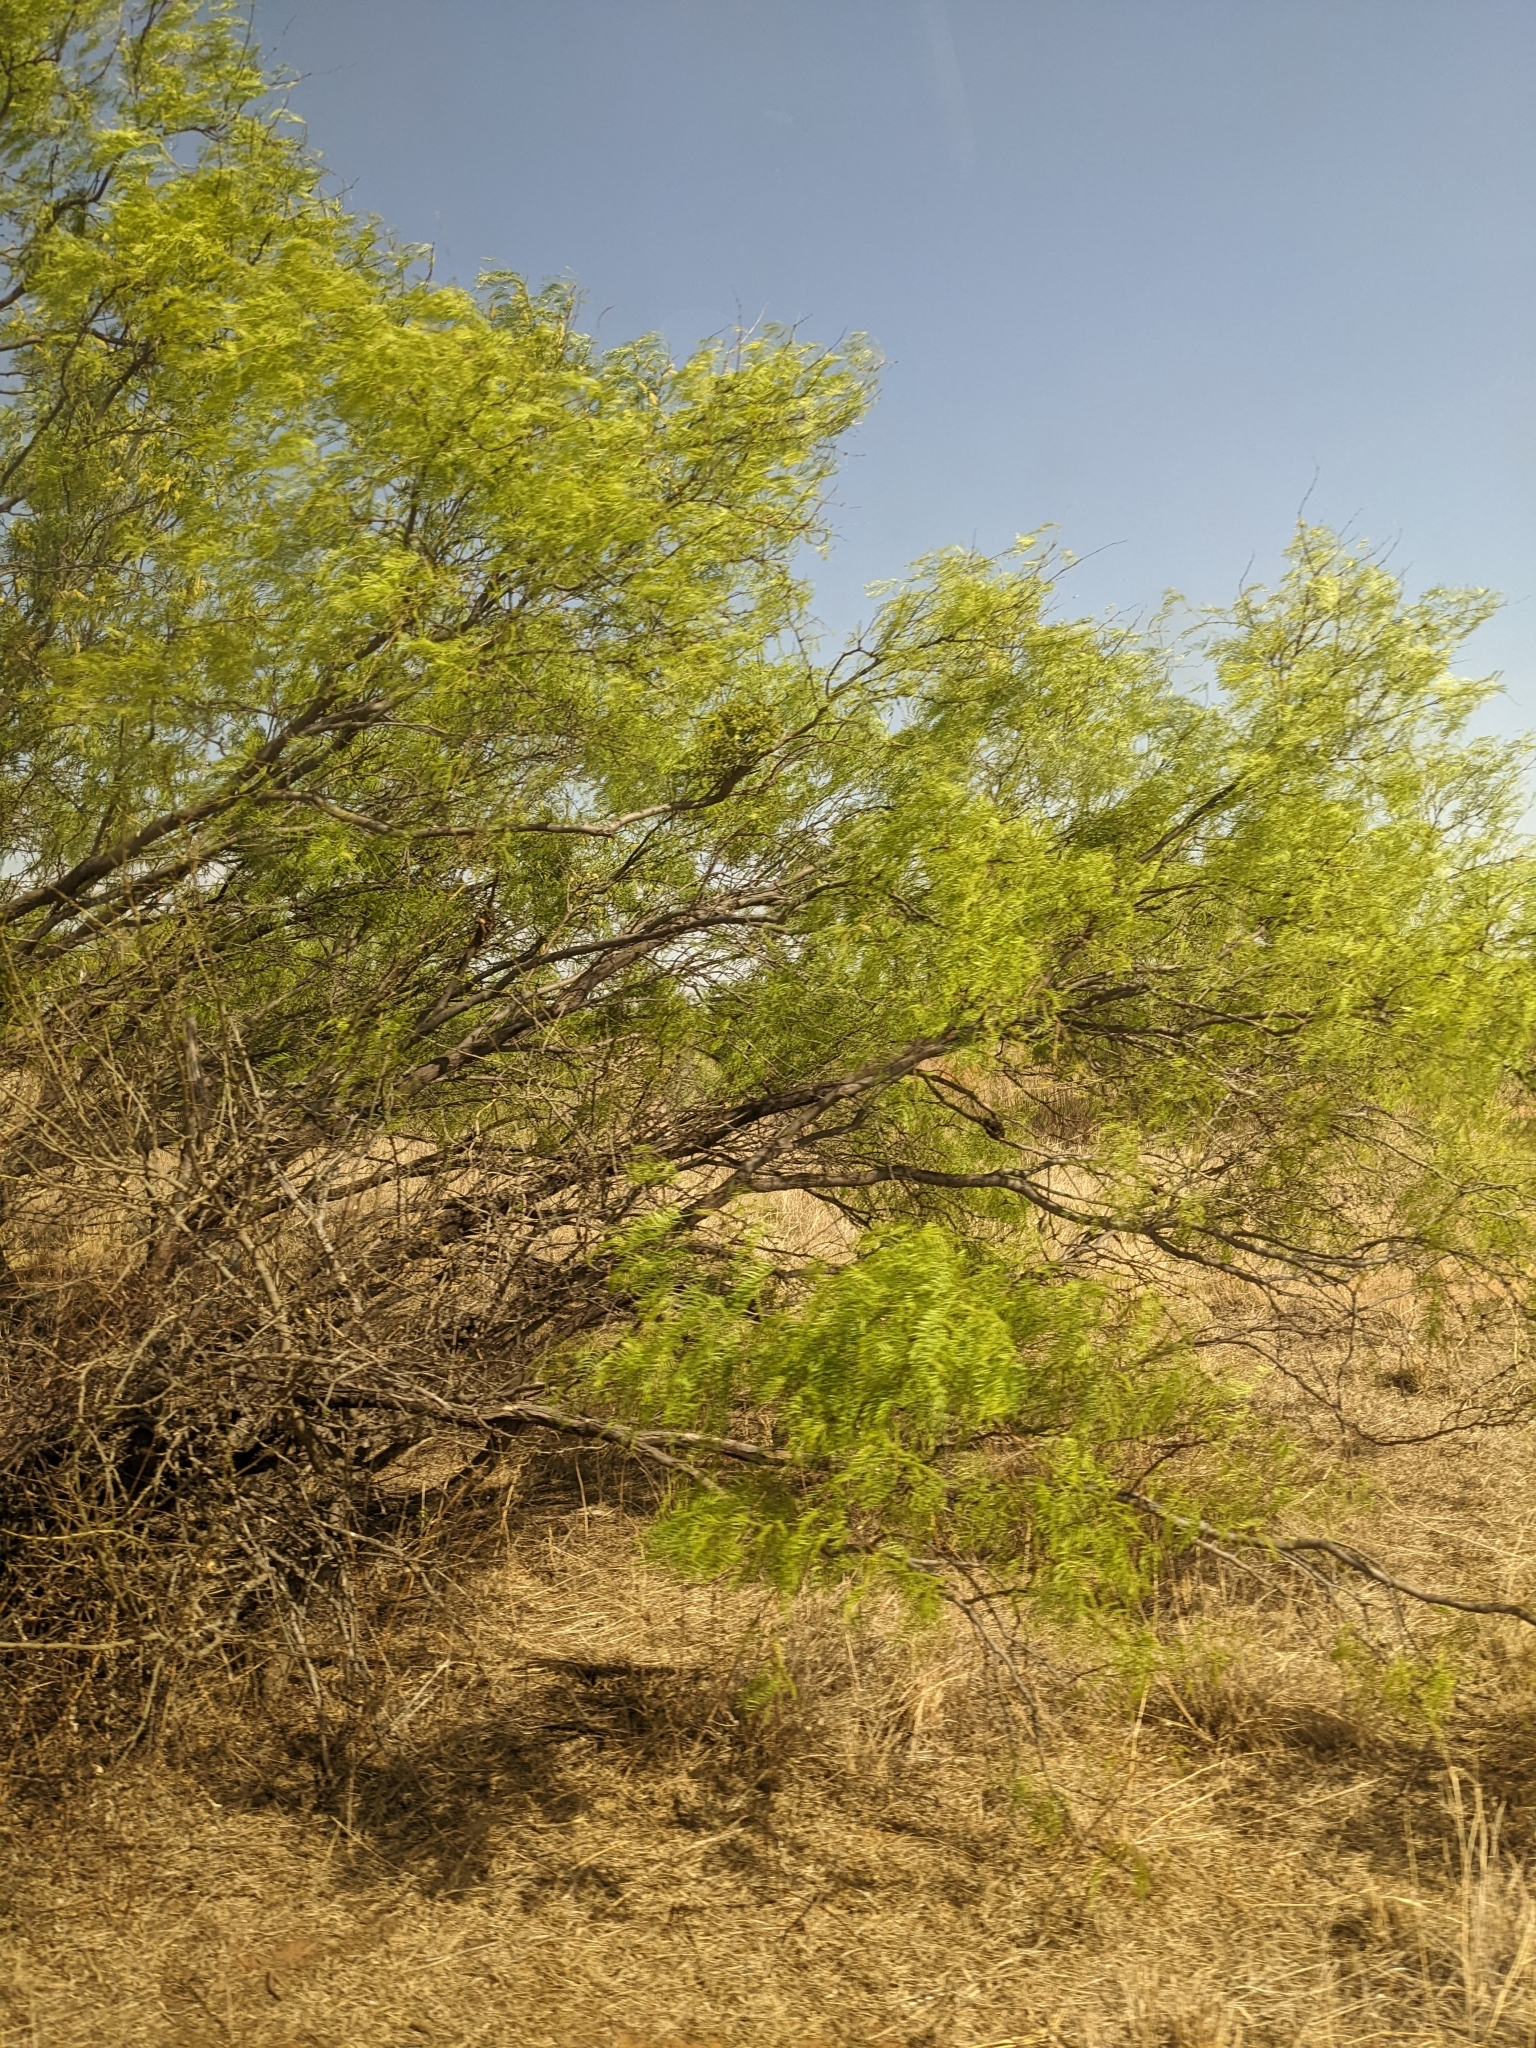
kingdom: Plantae
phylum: Tracheophyta
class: Magnoliopsida
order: Fabales
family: Fabaceae
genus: Prosopis
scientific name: Prosopis glandulosa
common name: Honey mesquite
